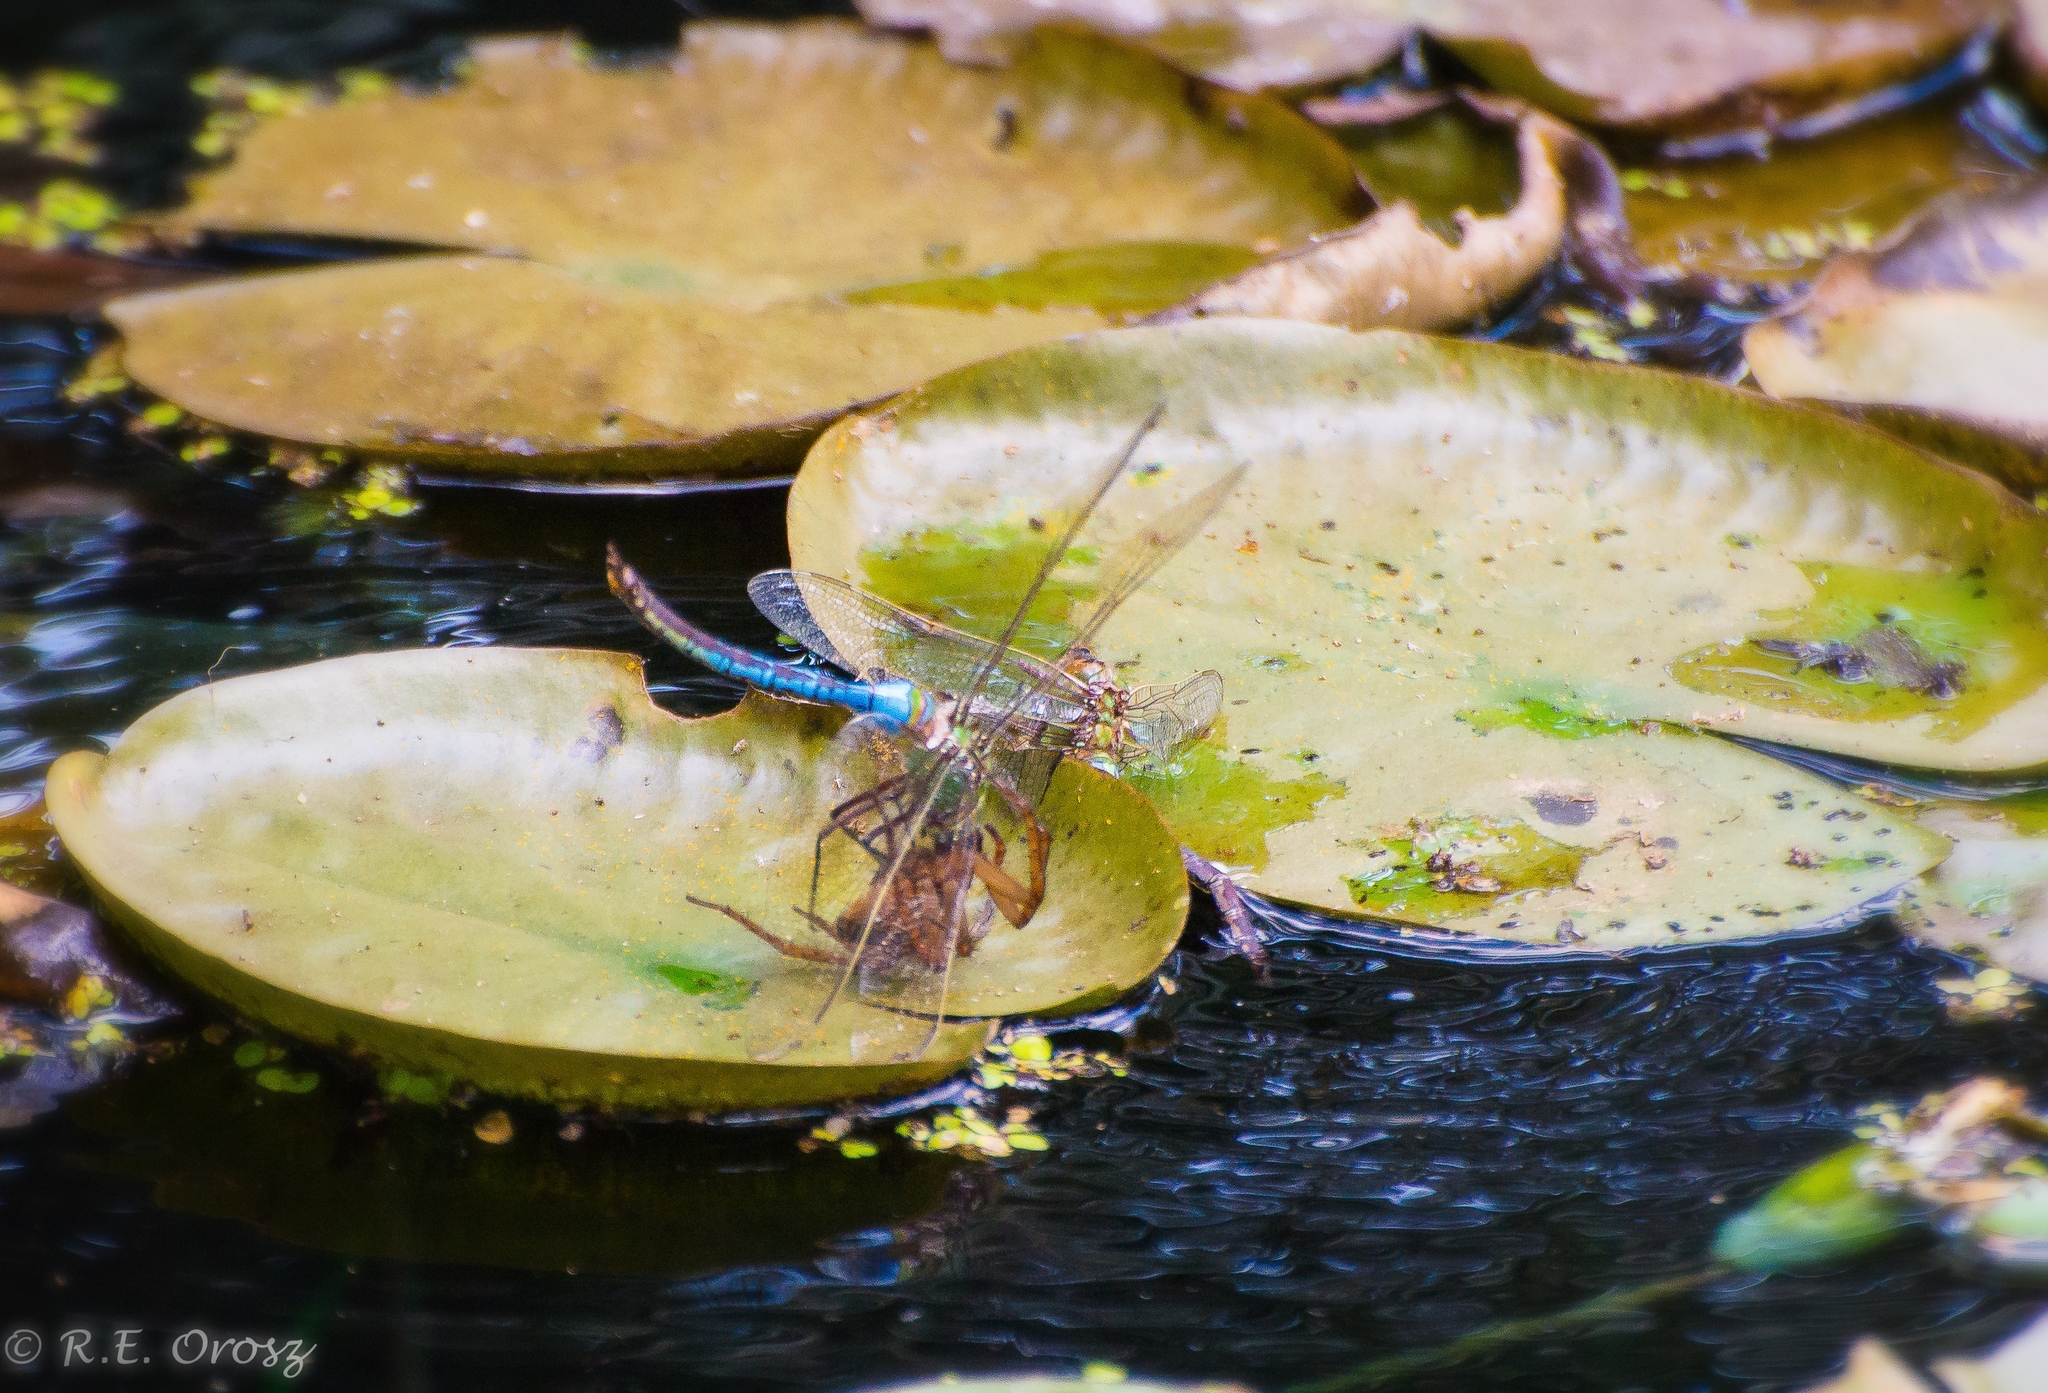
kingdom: Animalia
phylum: Arthropoda
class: Insecta
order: Odonata
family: Aeshnidae
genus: Anax
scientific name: Anax junius
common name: Common green darner
